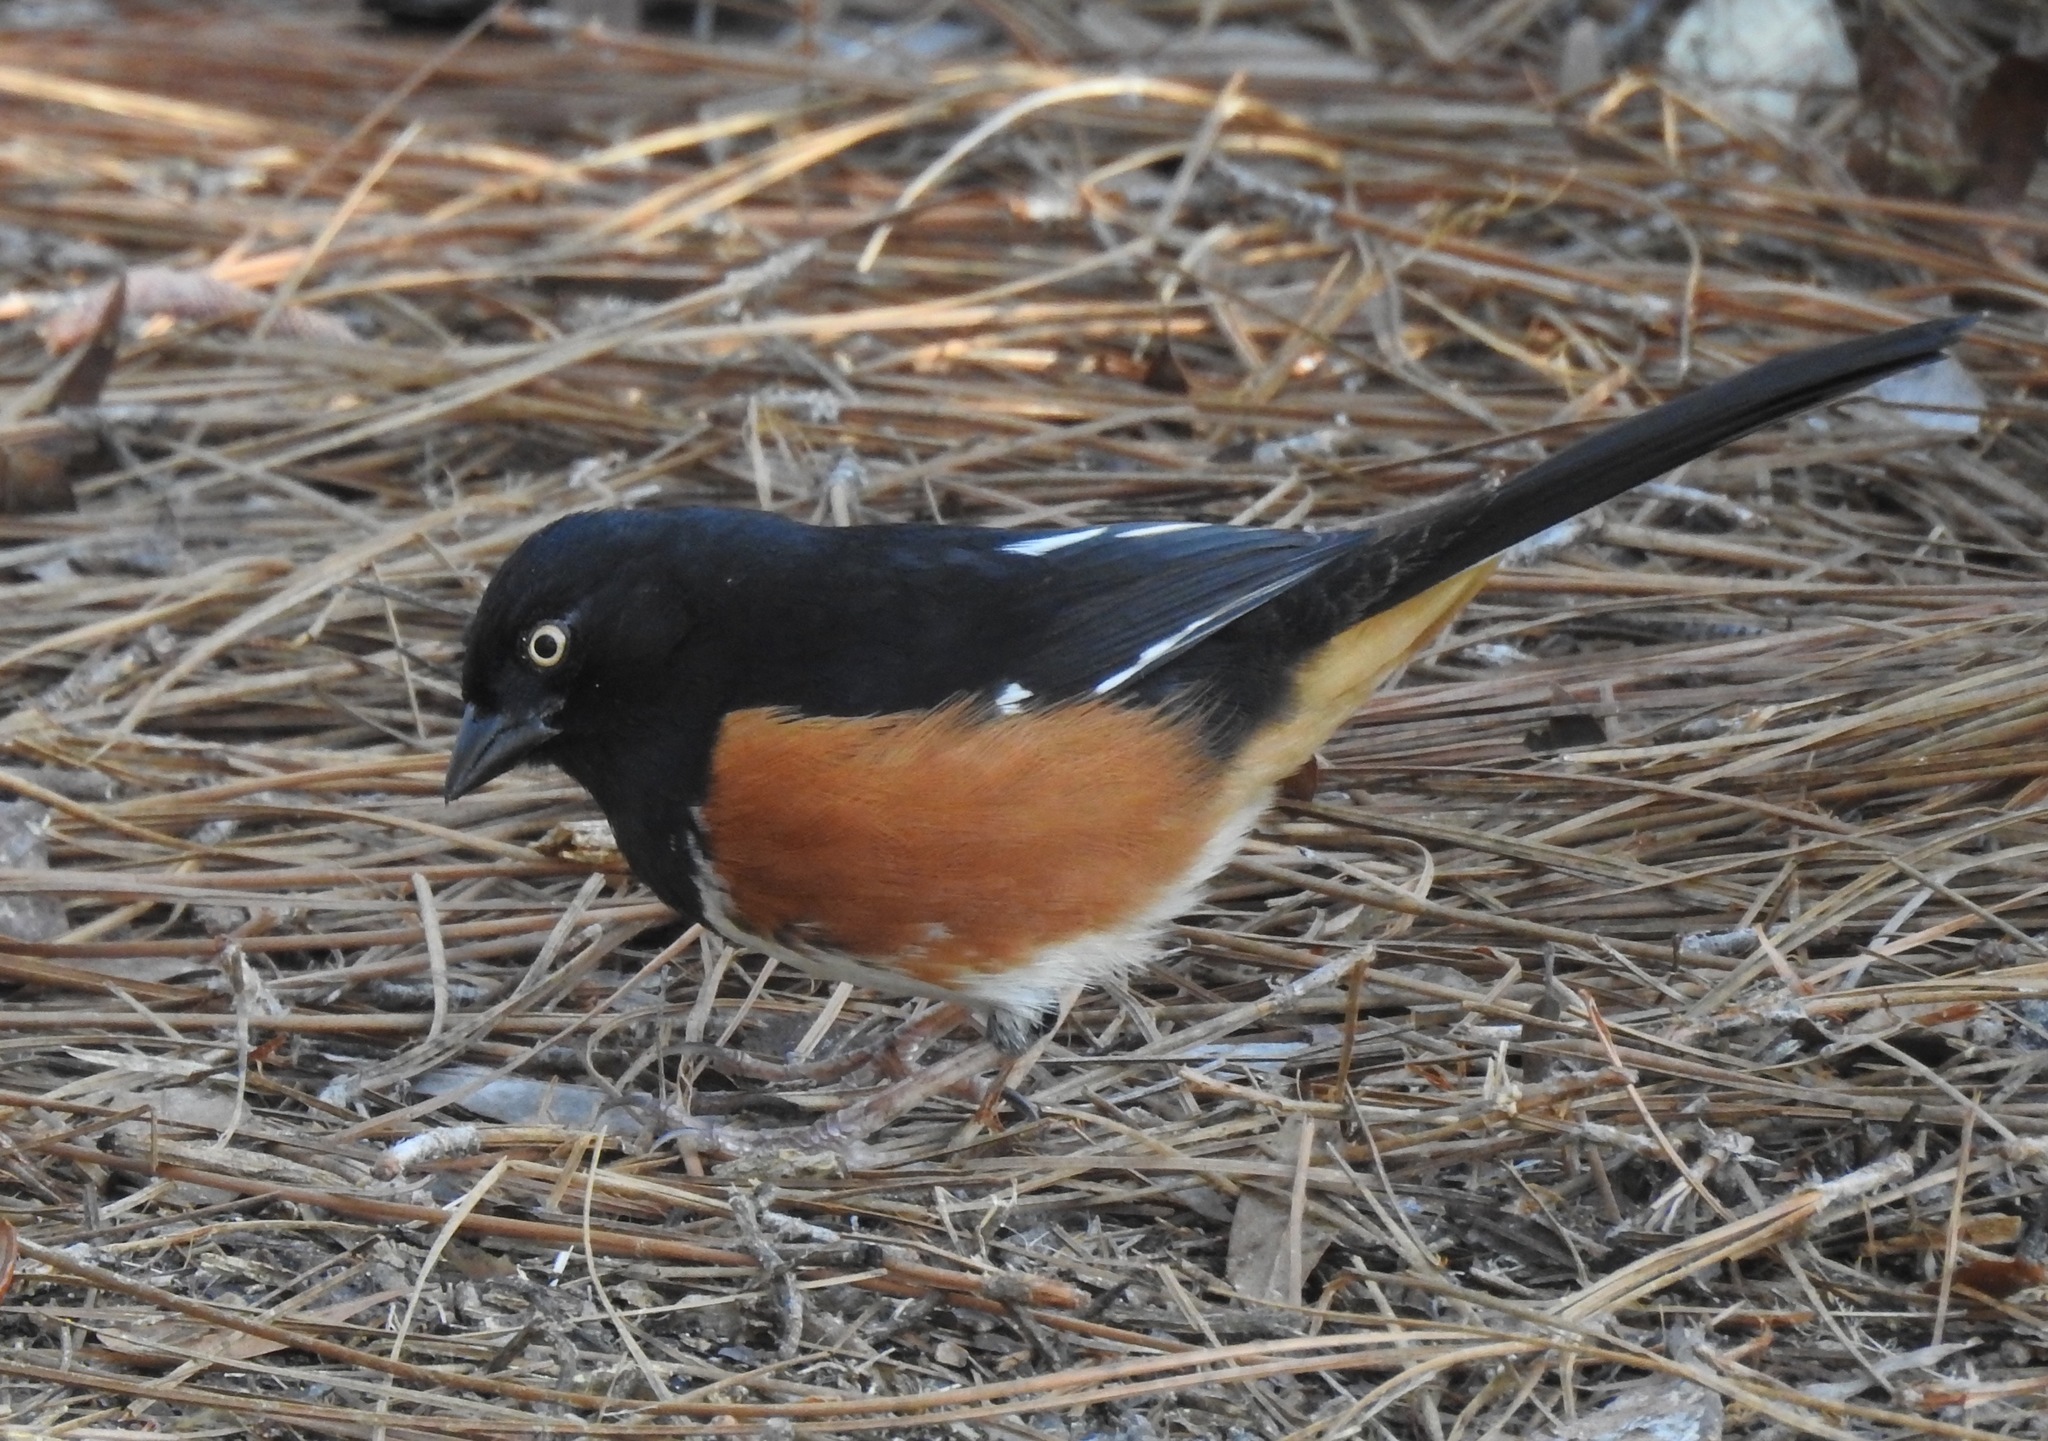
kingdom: Animalia
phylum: Chordata
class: Aves
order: Passeriformes
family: Passerellidae
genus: Pipilo
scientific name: Pipilo erythrophthalmus
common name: Eastern towhee
